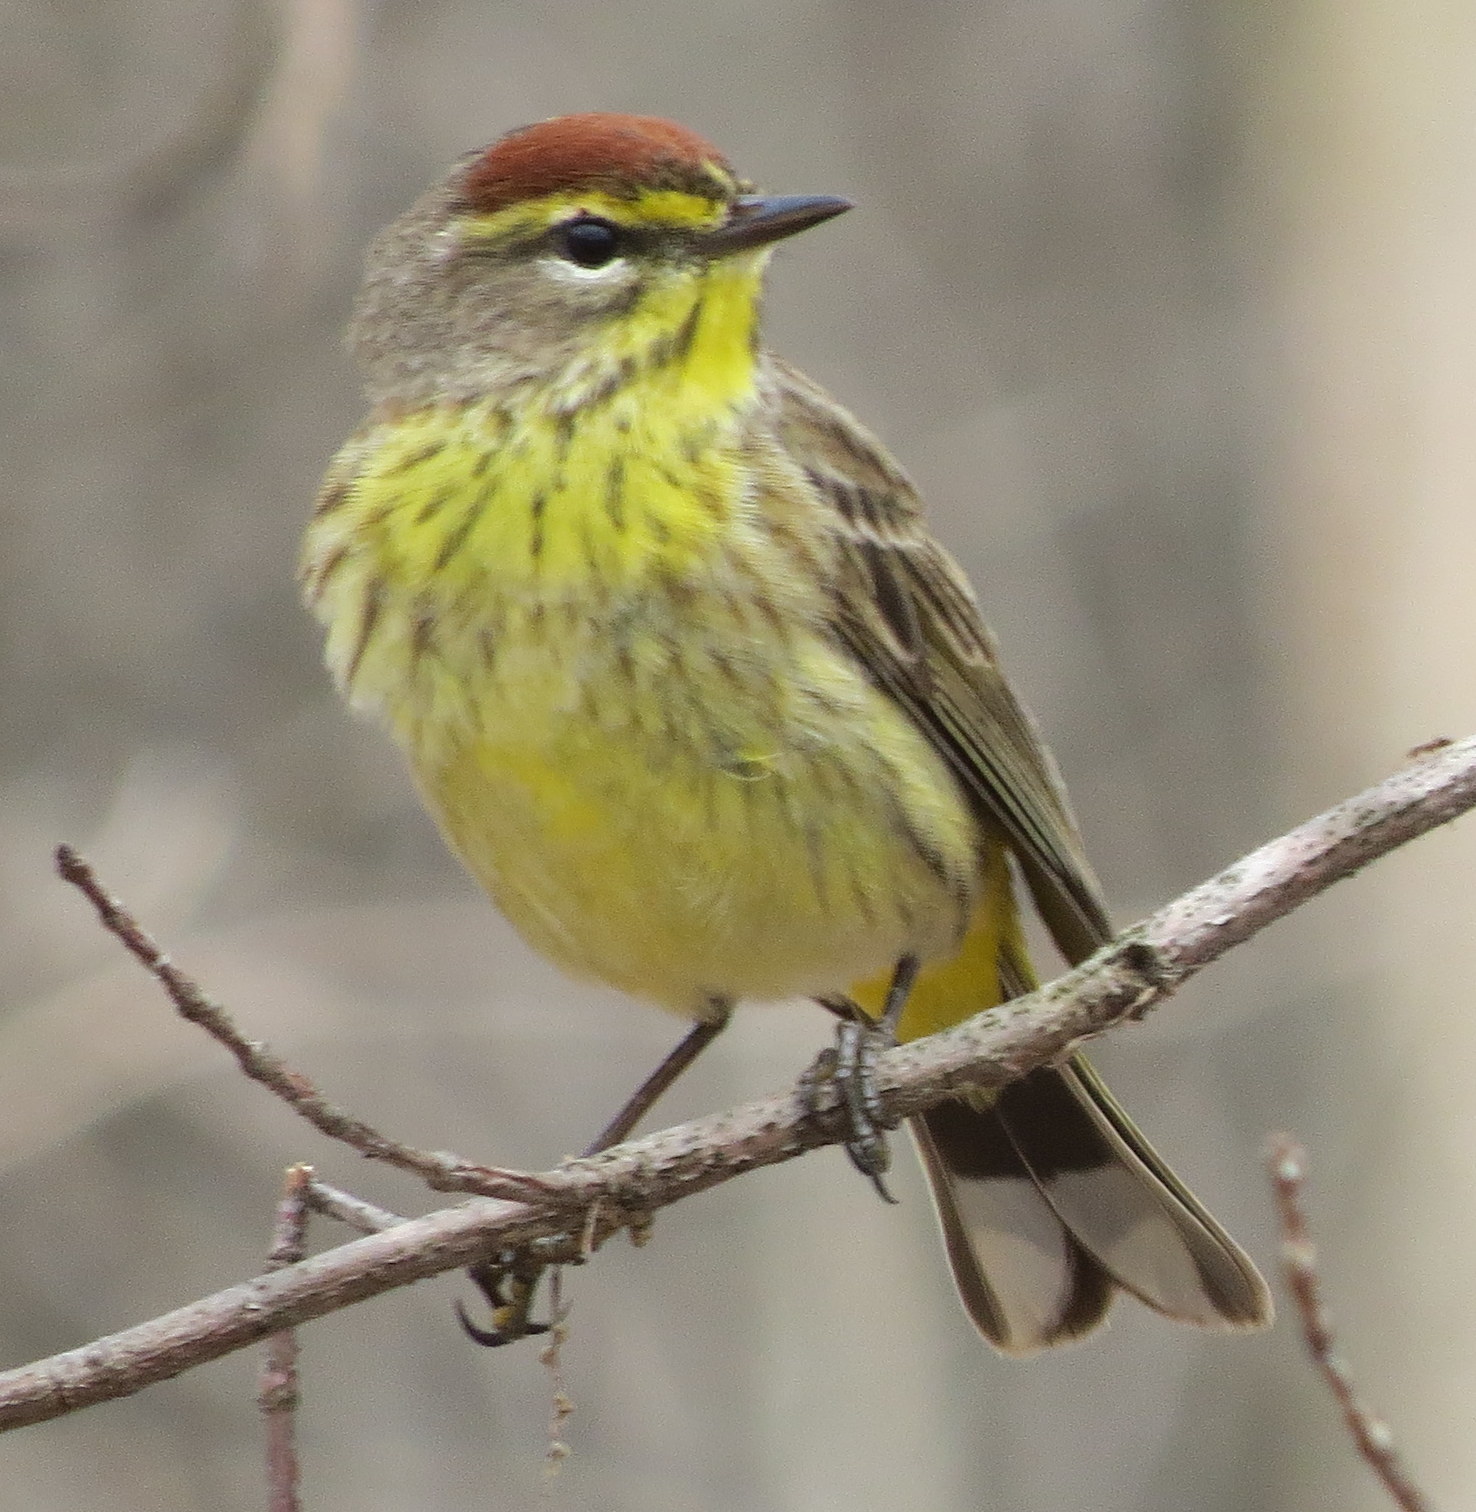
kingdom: Animalia
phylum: Chordata
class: Aves
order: Passeriformes
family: Parulidae
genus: Setophaga
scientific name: Setophaga palmarum
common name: Palm warbler
